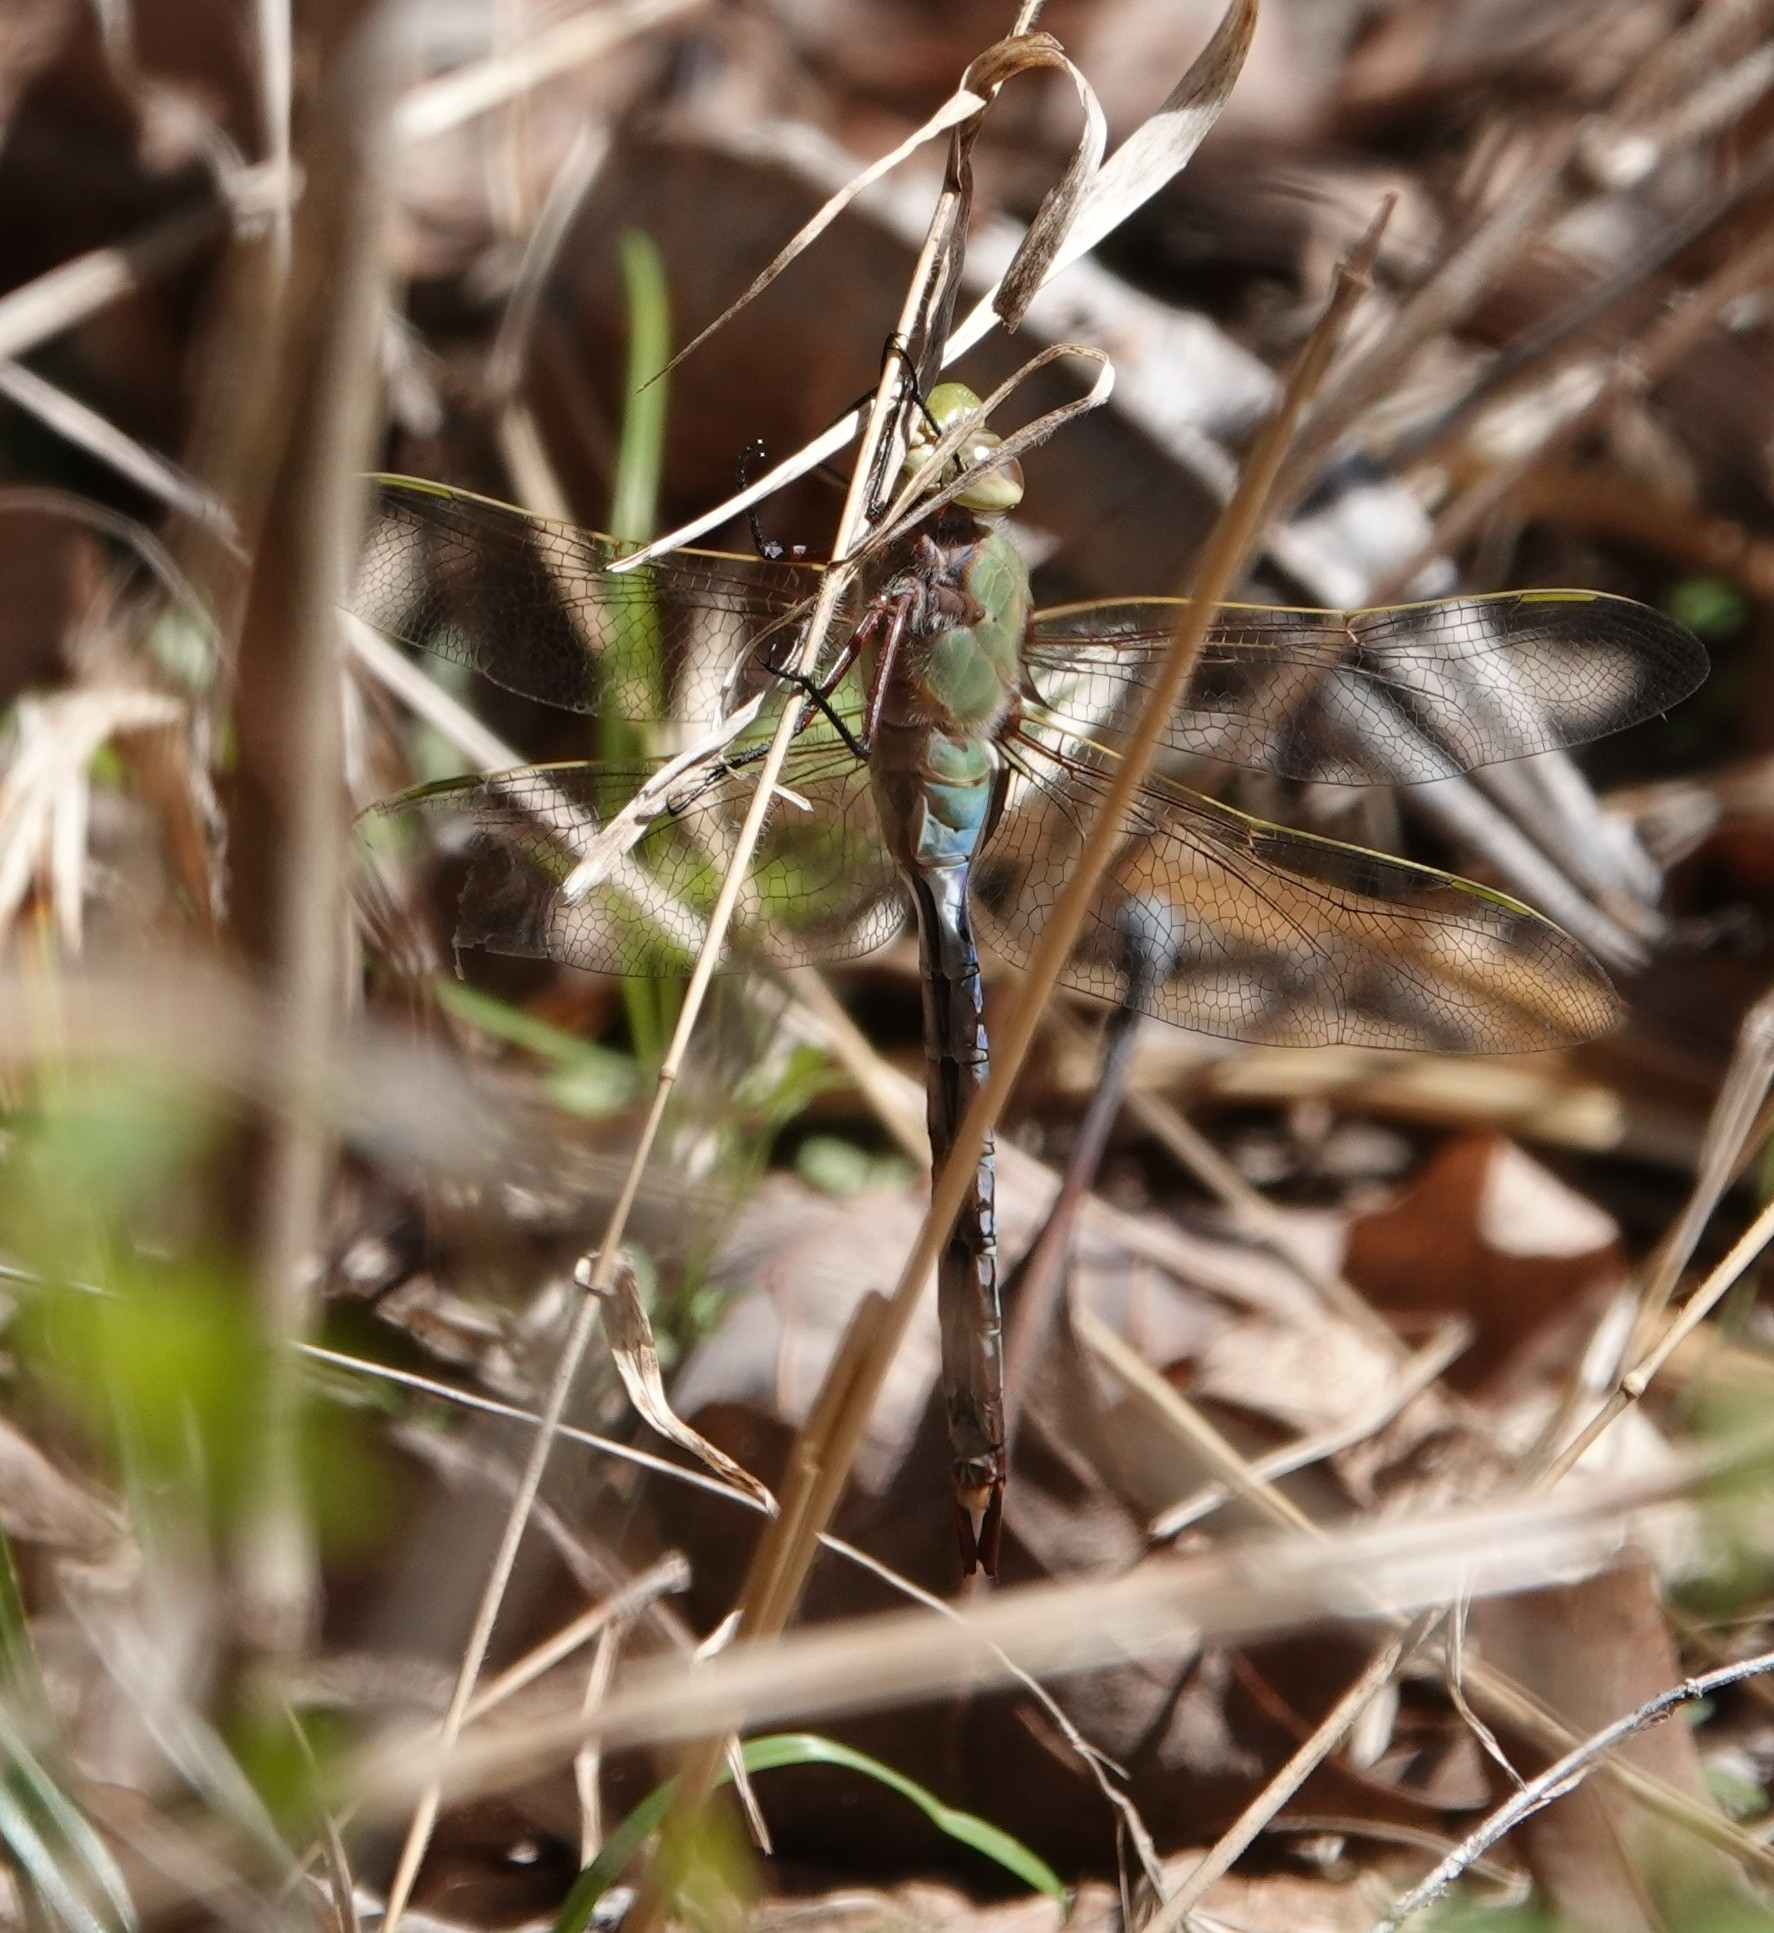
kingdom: Animalia
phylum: Arthropoda
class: Insecta
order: Odonata
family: Aeshnidae
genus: Anax
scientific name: Anax junius
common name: Common green darner
